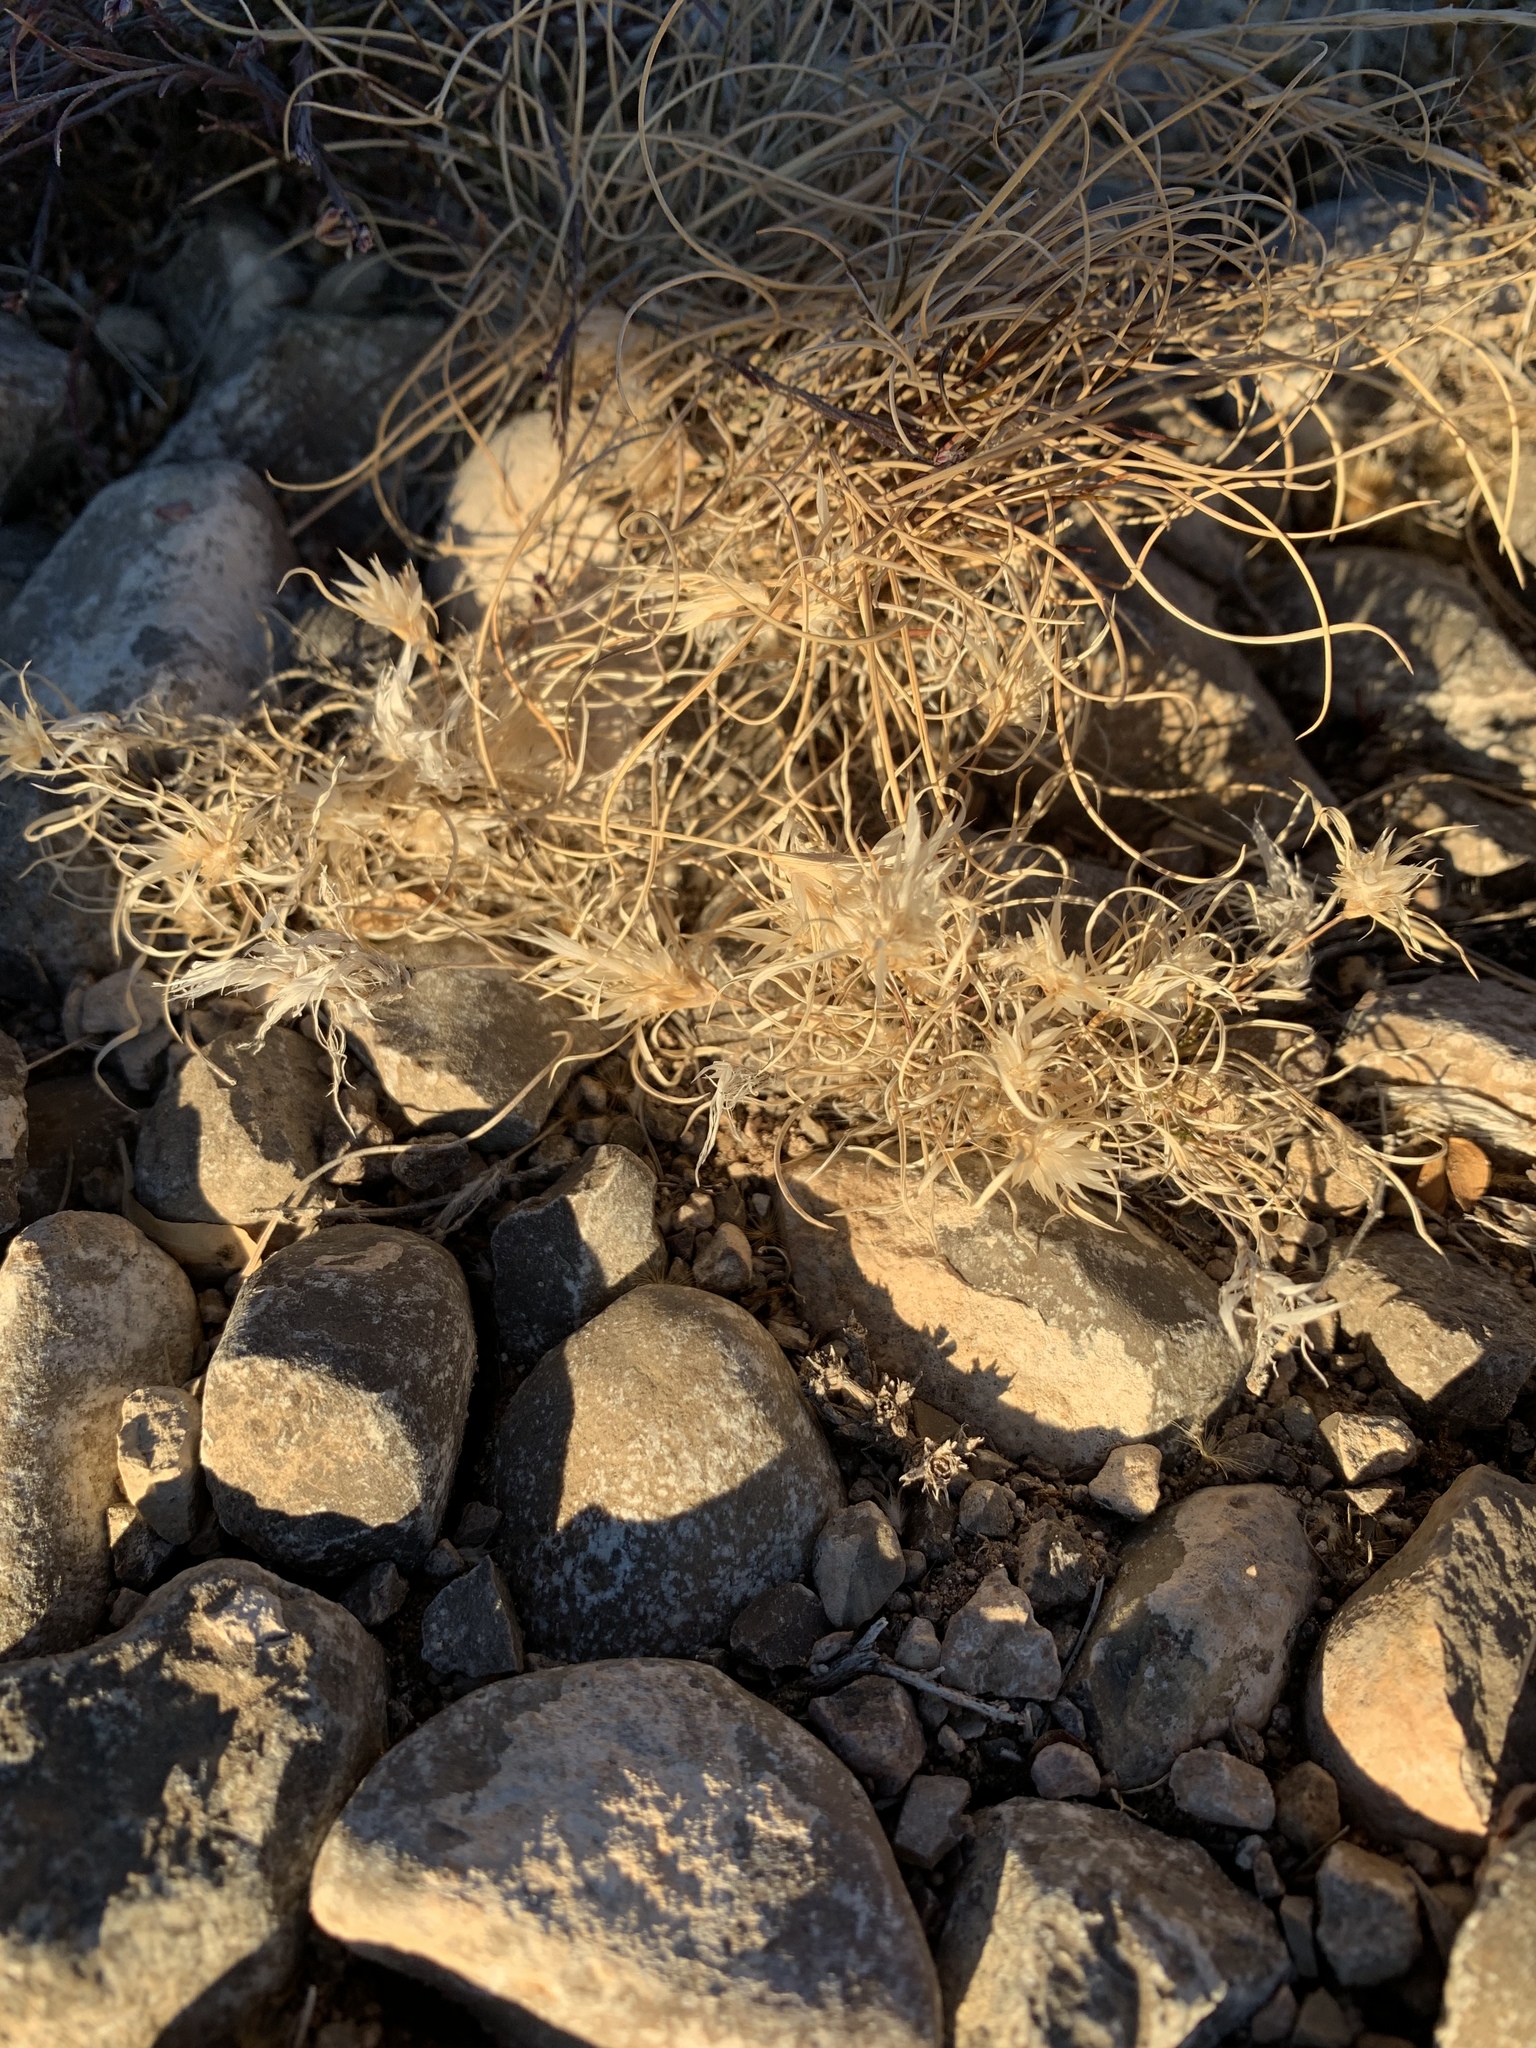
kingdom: Plantae
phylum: Tracheophyta
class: Liliopsida
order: Poales
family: Poaceae
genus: Dasyochloa
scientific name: Dasyochloa pulchella
